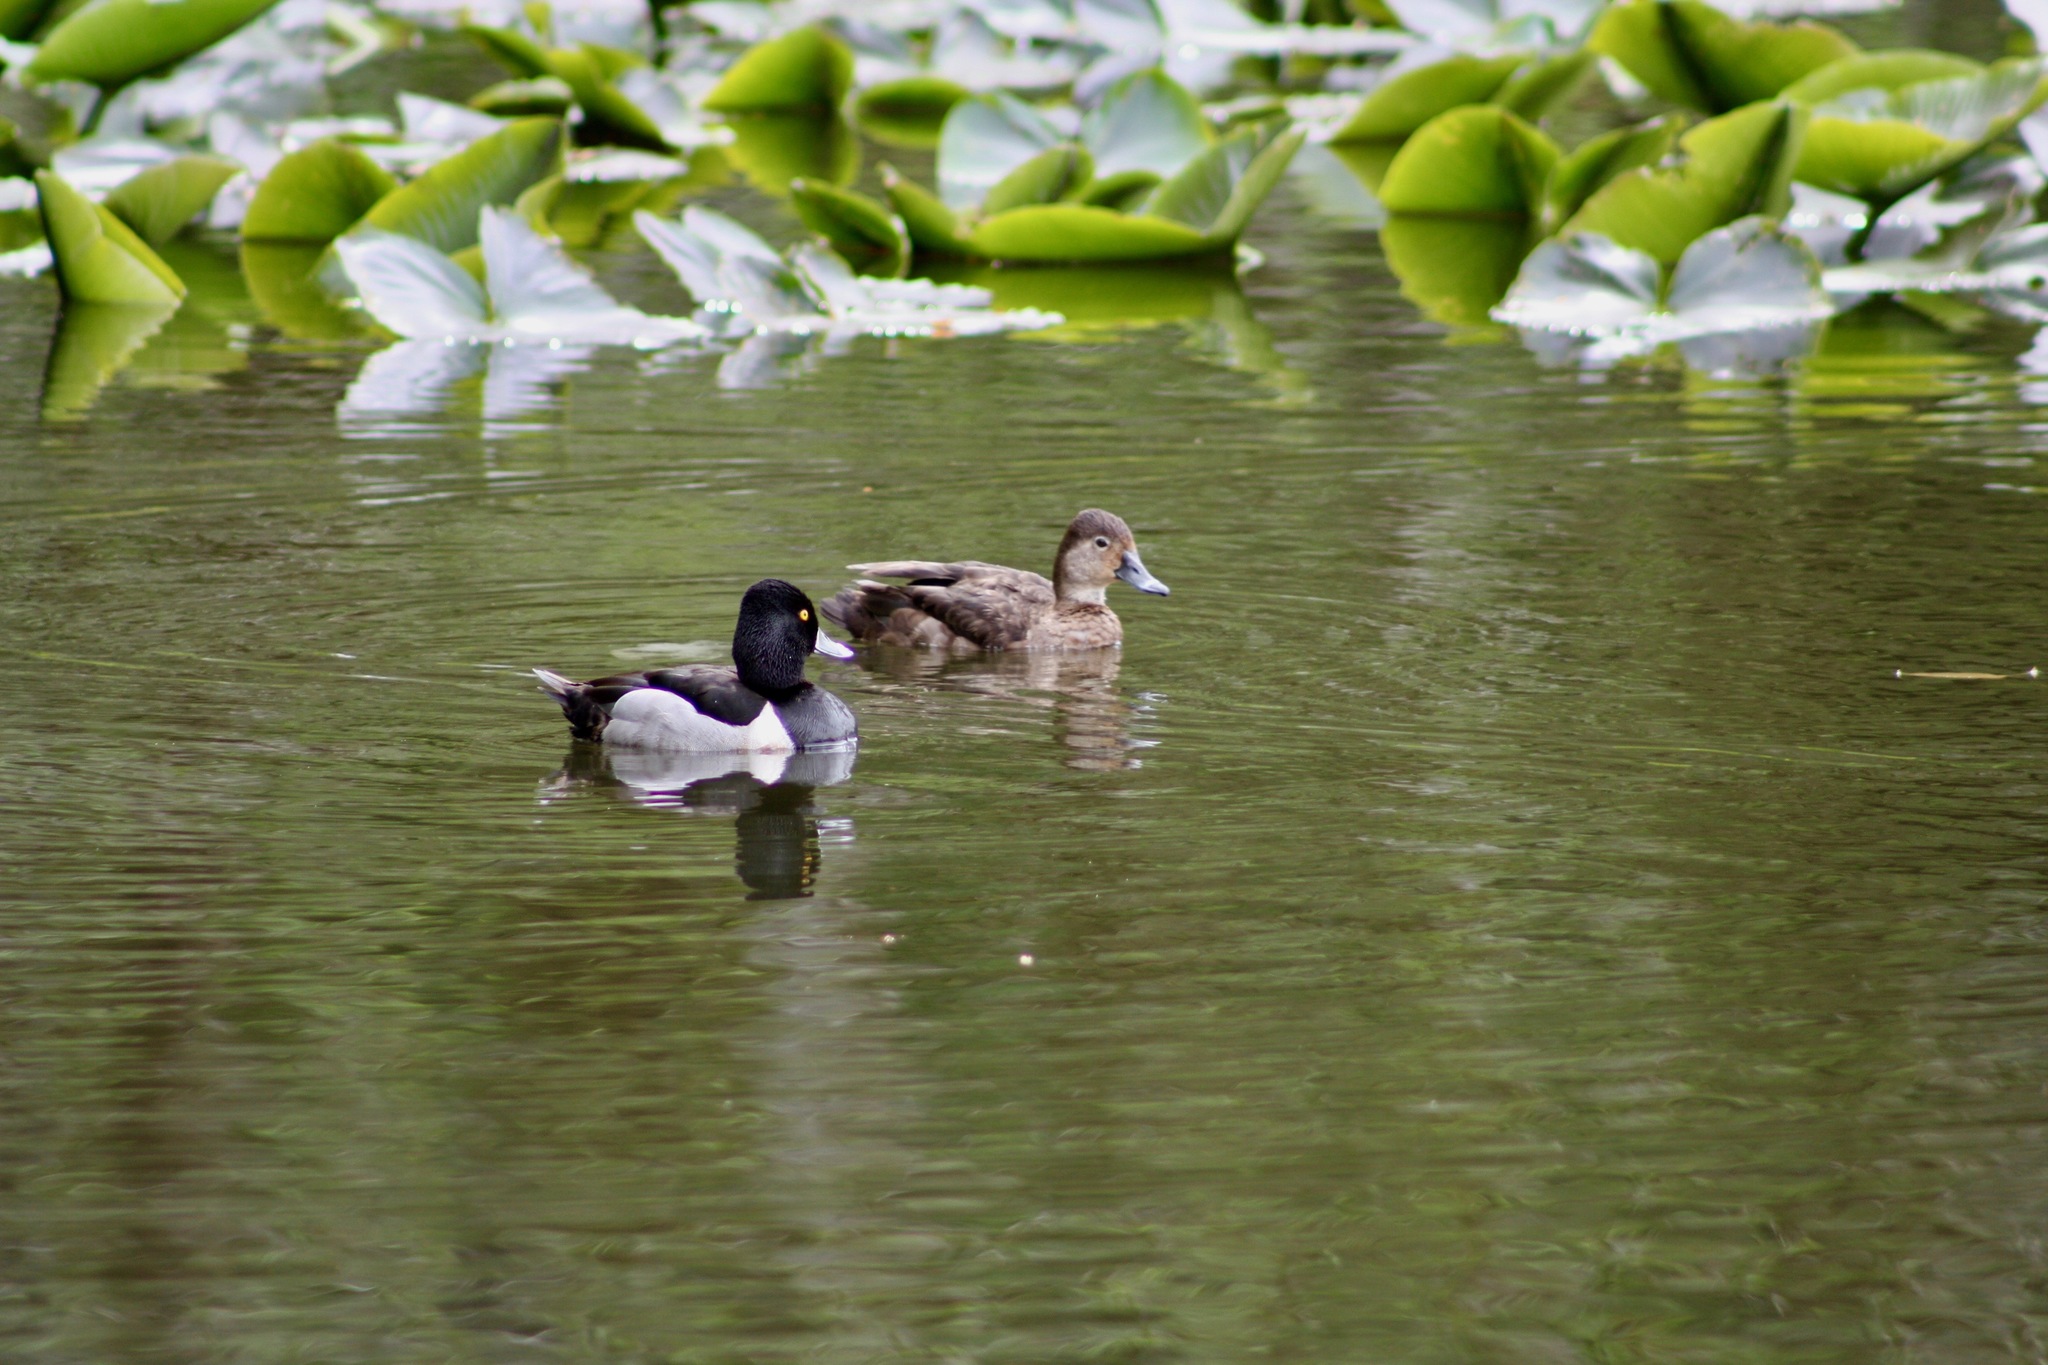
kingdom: Animalia
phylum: Chordata
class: Aves
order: Anseriformes
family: Anatidae
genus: Aythya
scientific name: Aythya collaris
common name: Ring-necked duck
